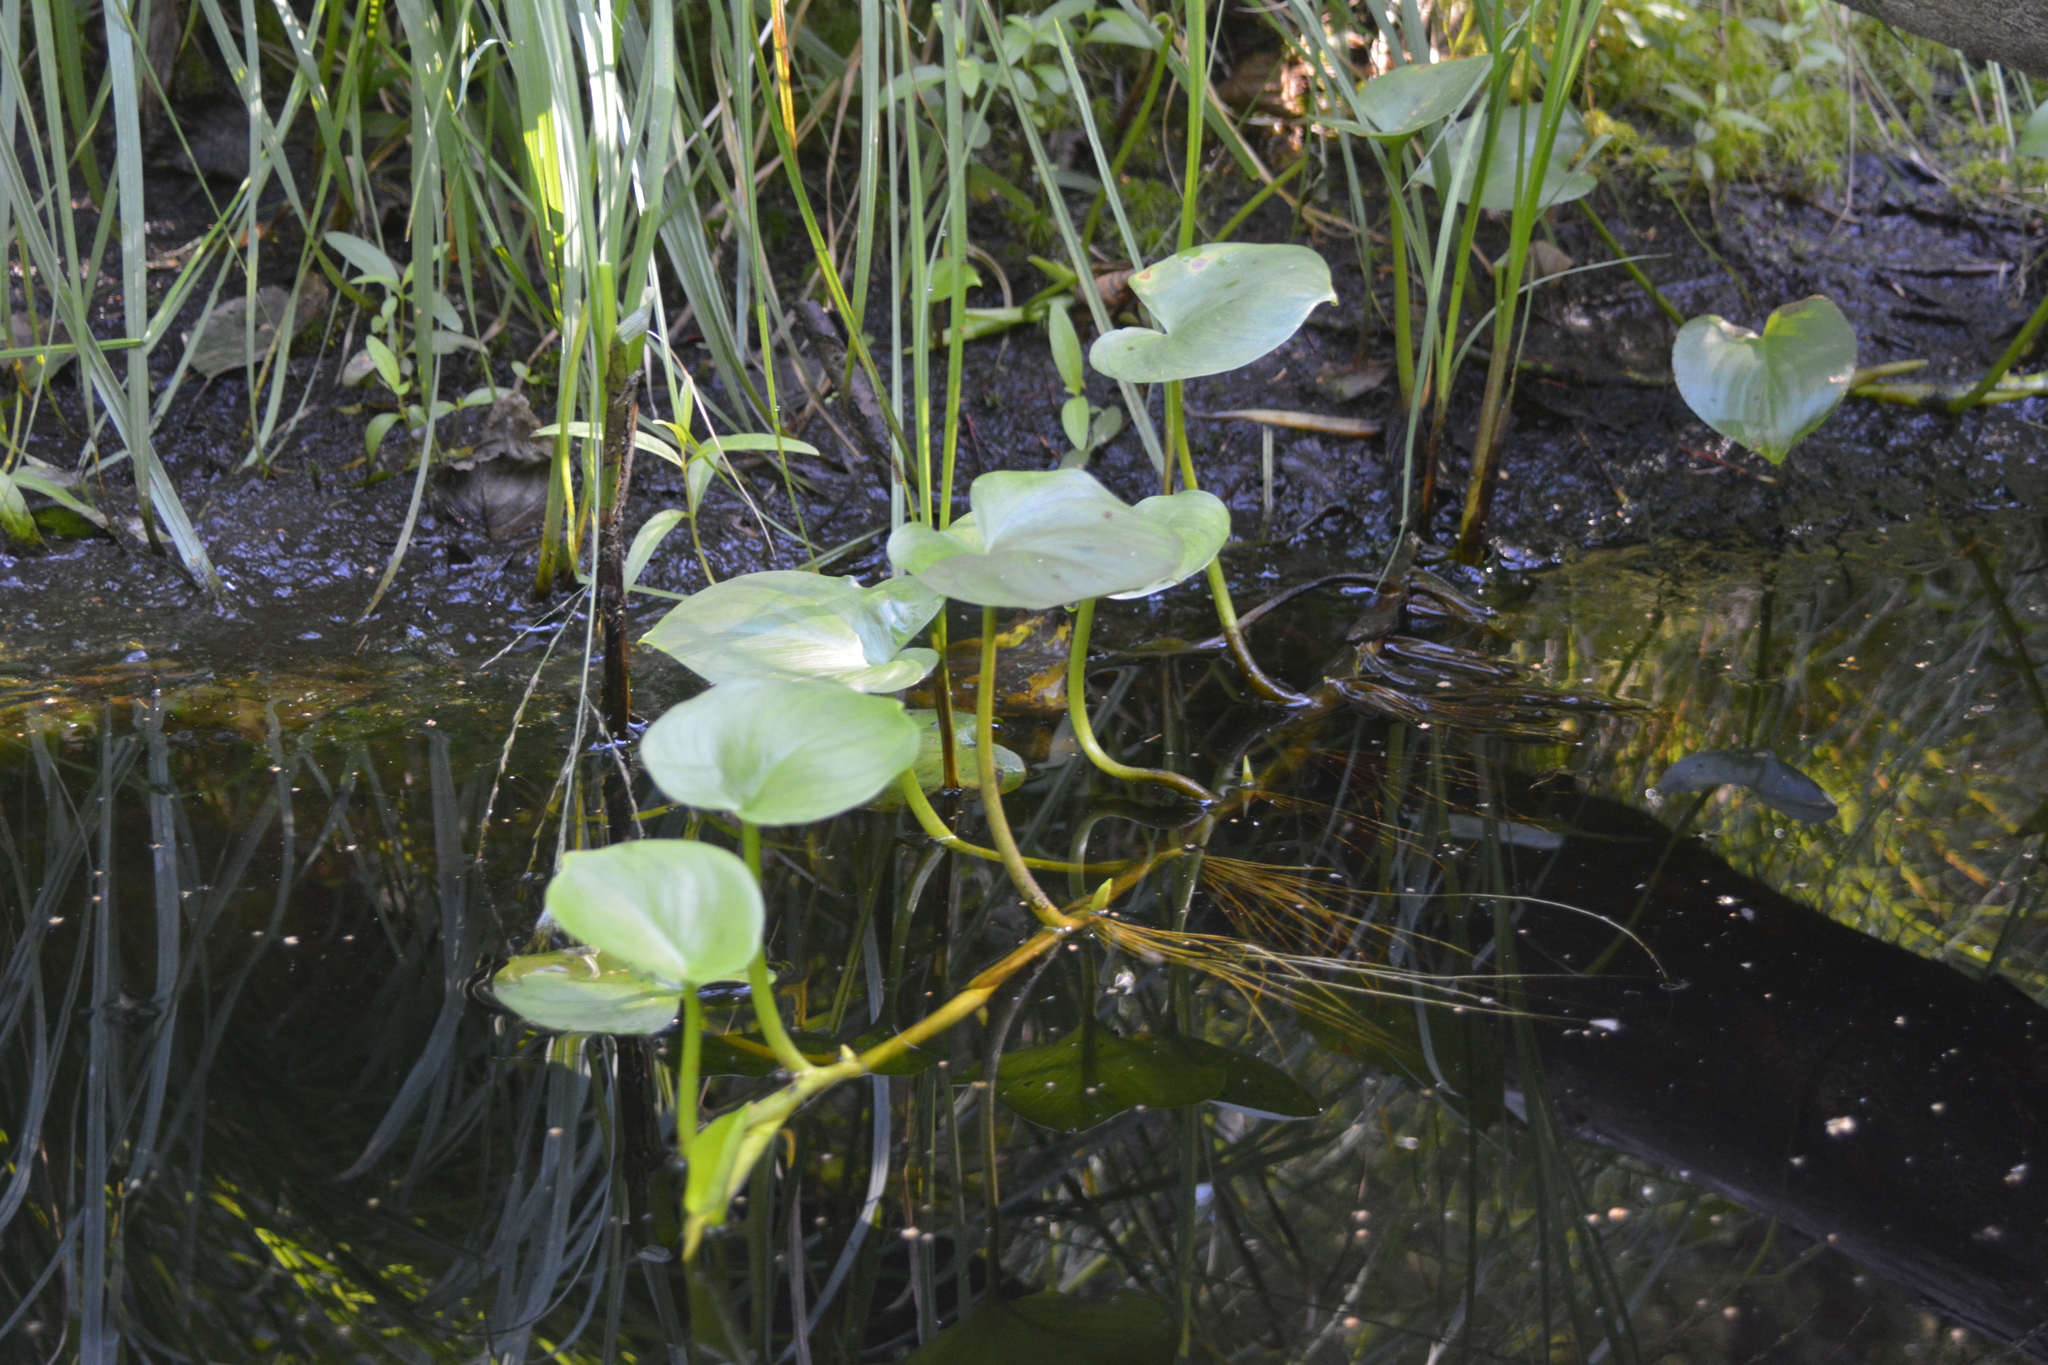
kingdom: Plantae
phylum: Tracheophyta
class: Liliopsida
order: Alismatales
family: Araceae
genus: Calla
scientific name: Calla palustris
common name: Bog arum
